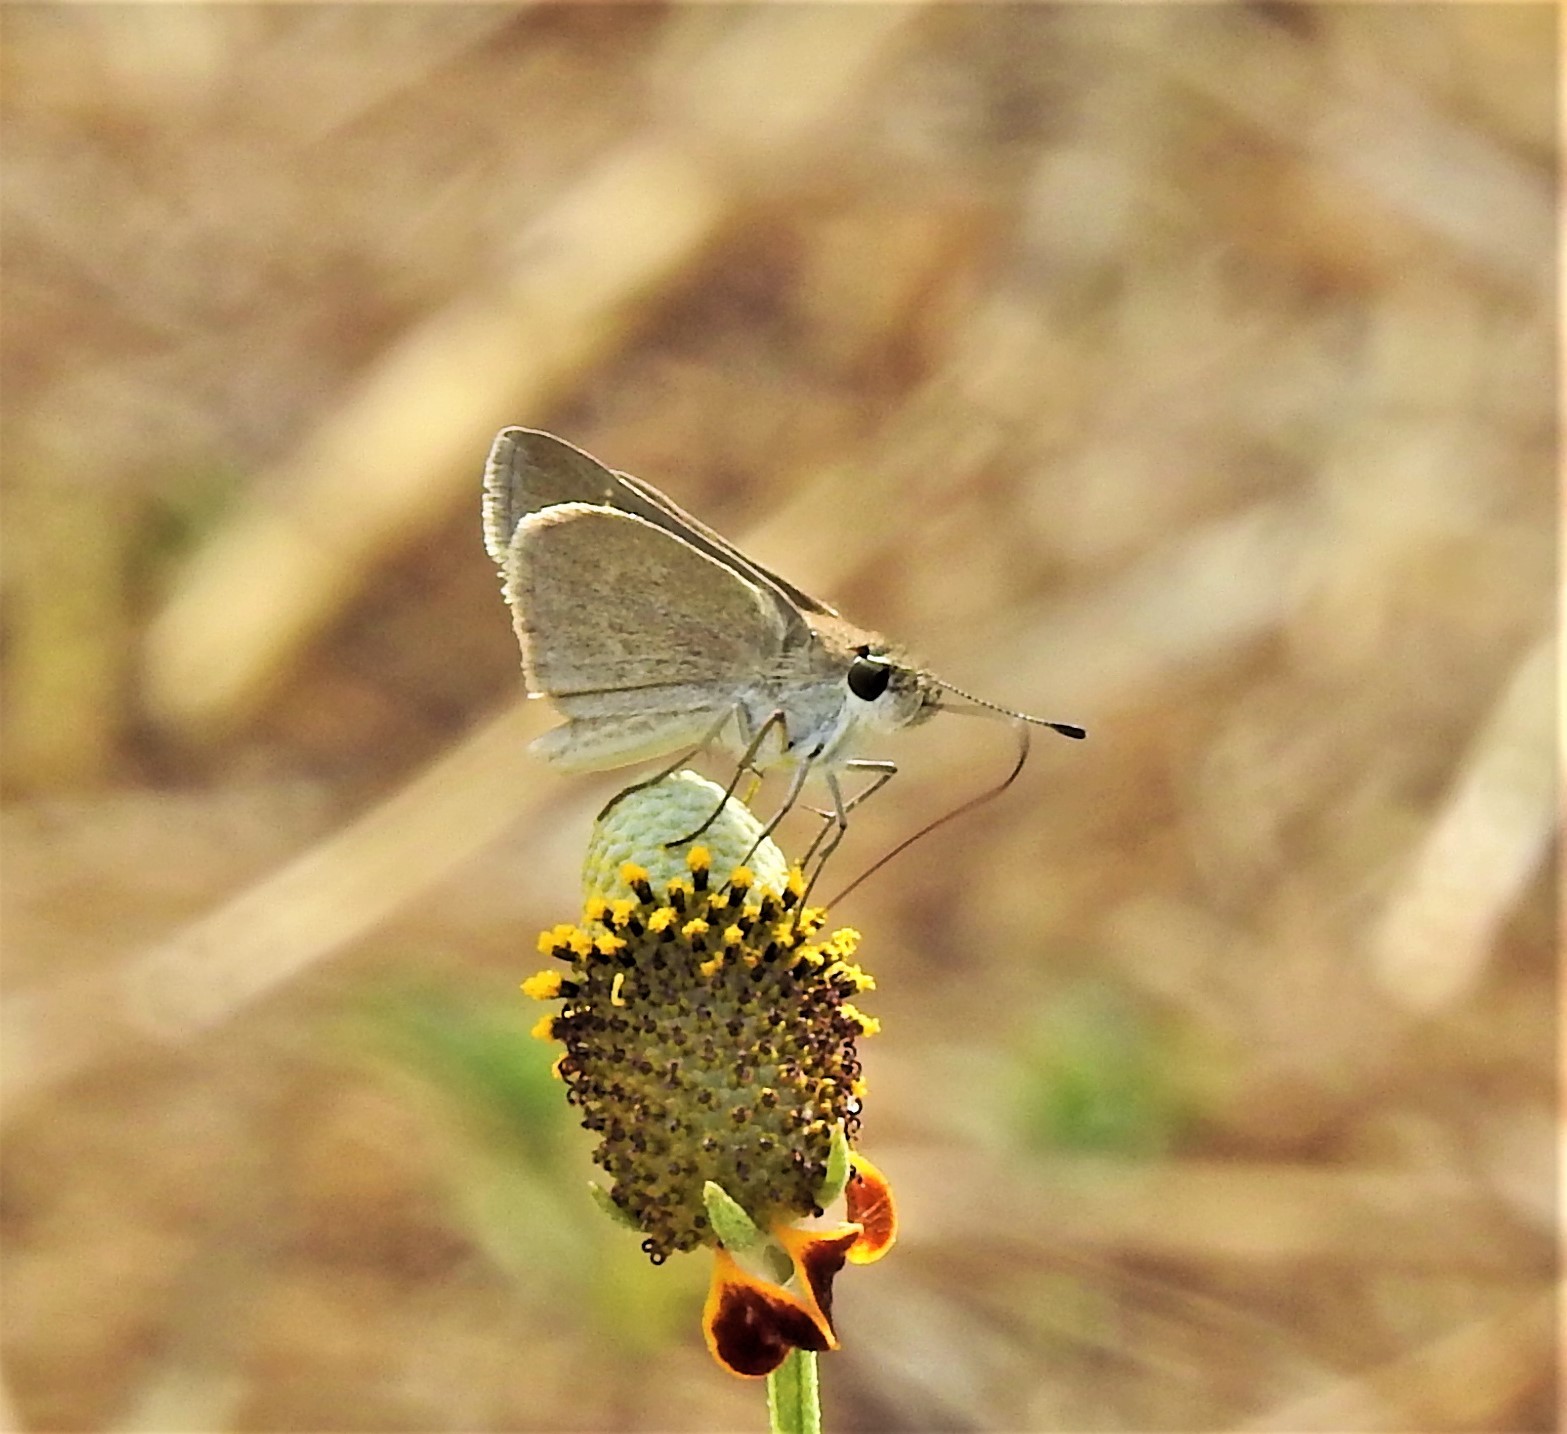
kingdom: Animalia
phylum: Arthropoda
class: Insecta
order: Lepidoptera
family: Hesperiidae
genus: Lerodea
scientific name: Lerodea eufala
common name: Eufala skipper
